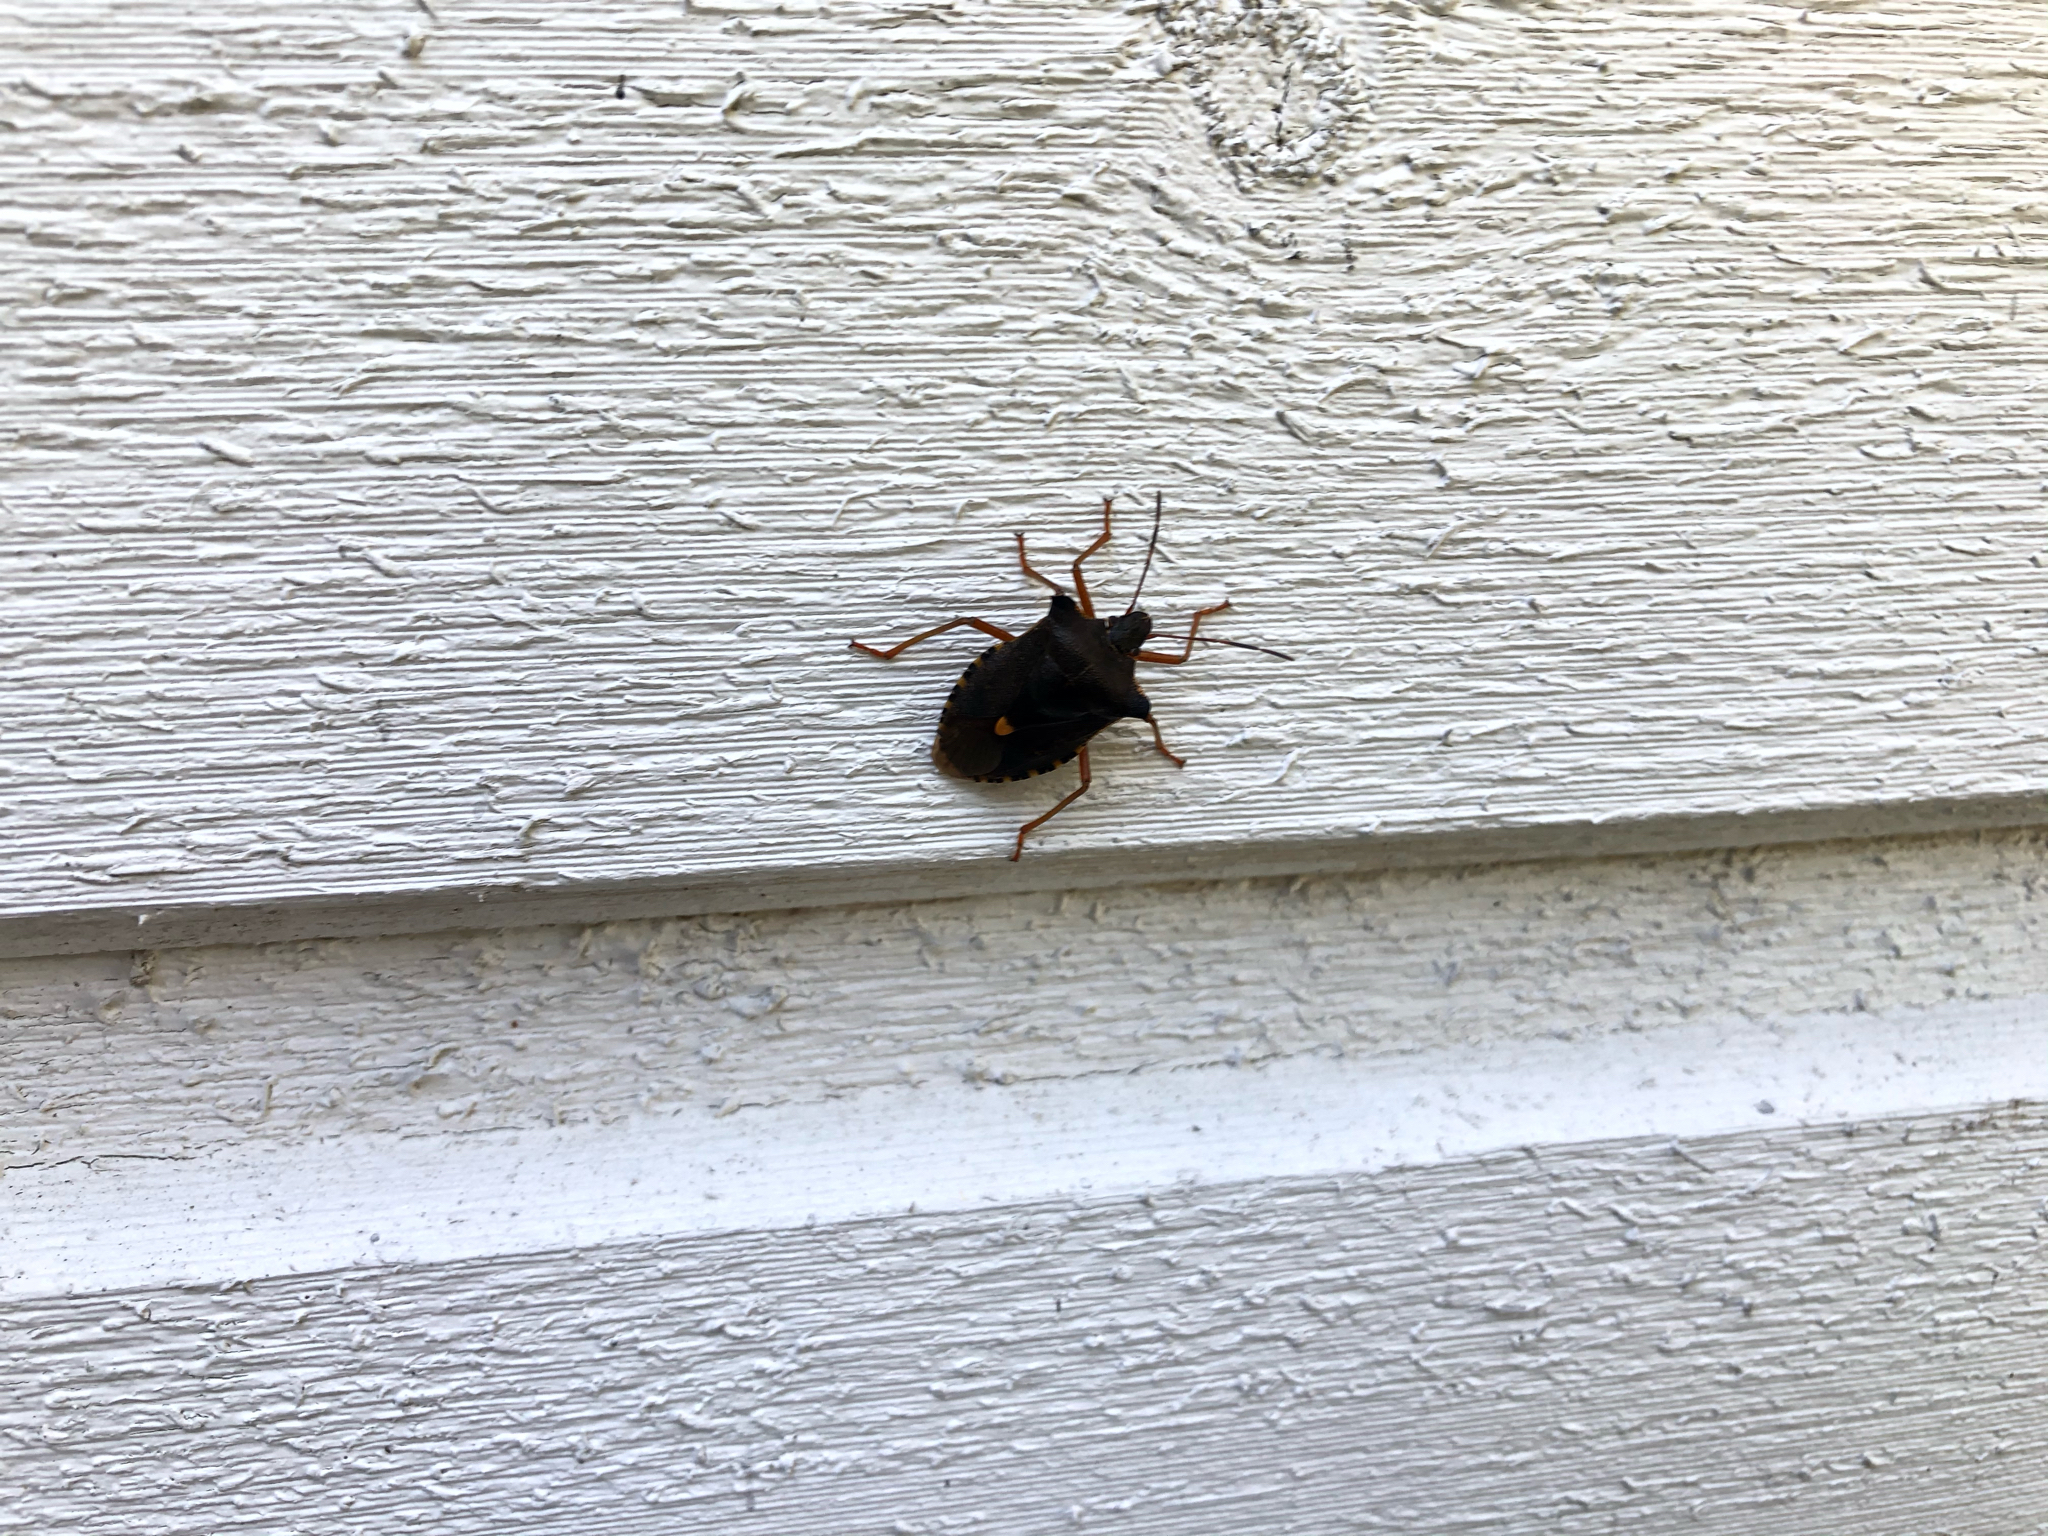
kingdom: Animalia
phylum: Arthropoda
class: Insecta
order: Hemiptera
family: Pentatomidae
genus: Pentatoma
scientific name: Pentatoma rufipes
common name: Forest bug
